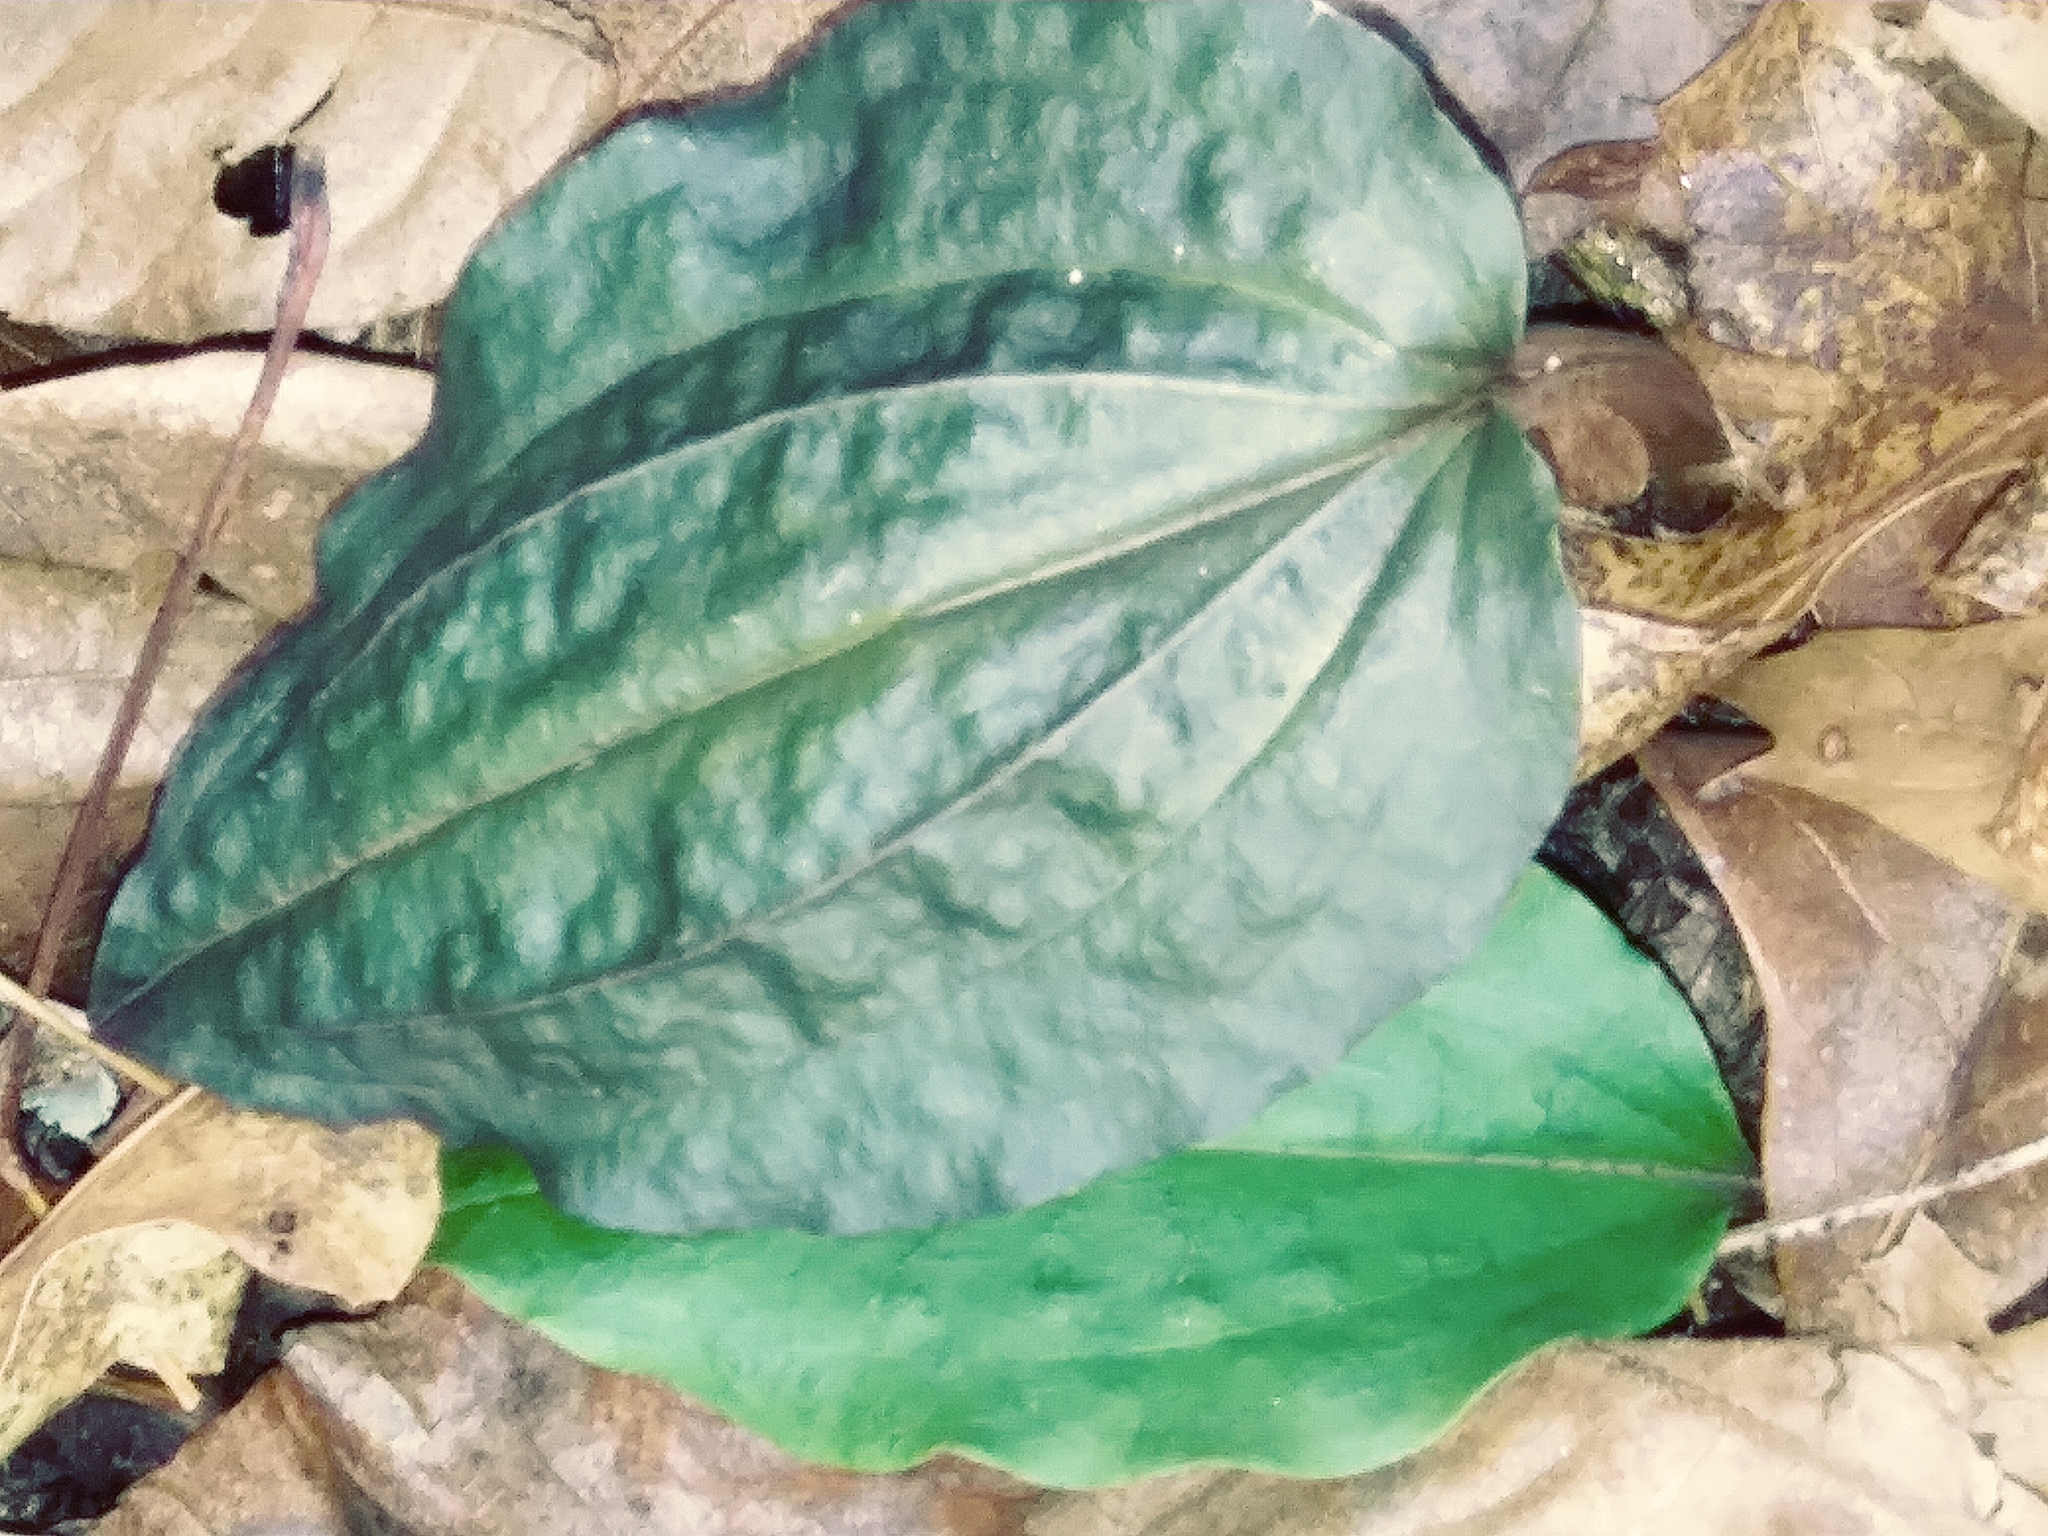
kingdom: Plantae
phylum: Tracheophyta
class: Liliopsida
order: Asparagales
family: Orchidaceae
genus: Tipularia
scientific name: Tipularia discolor
